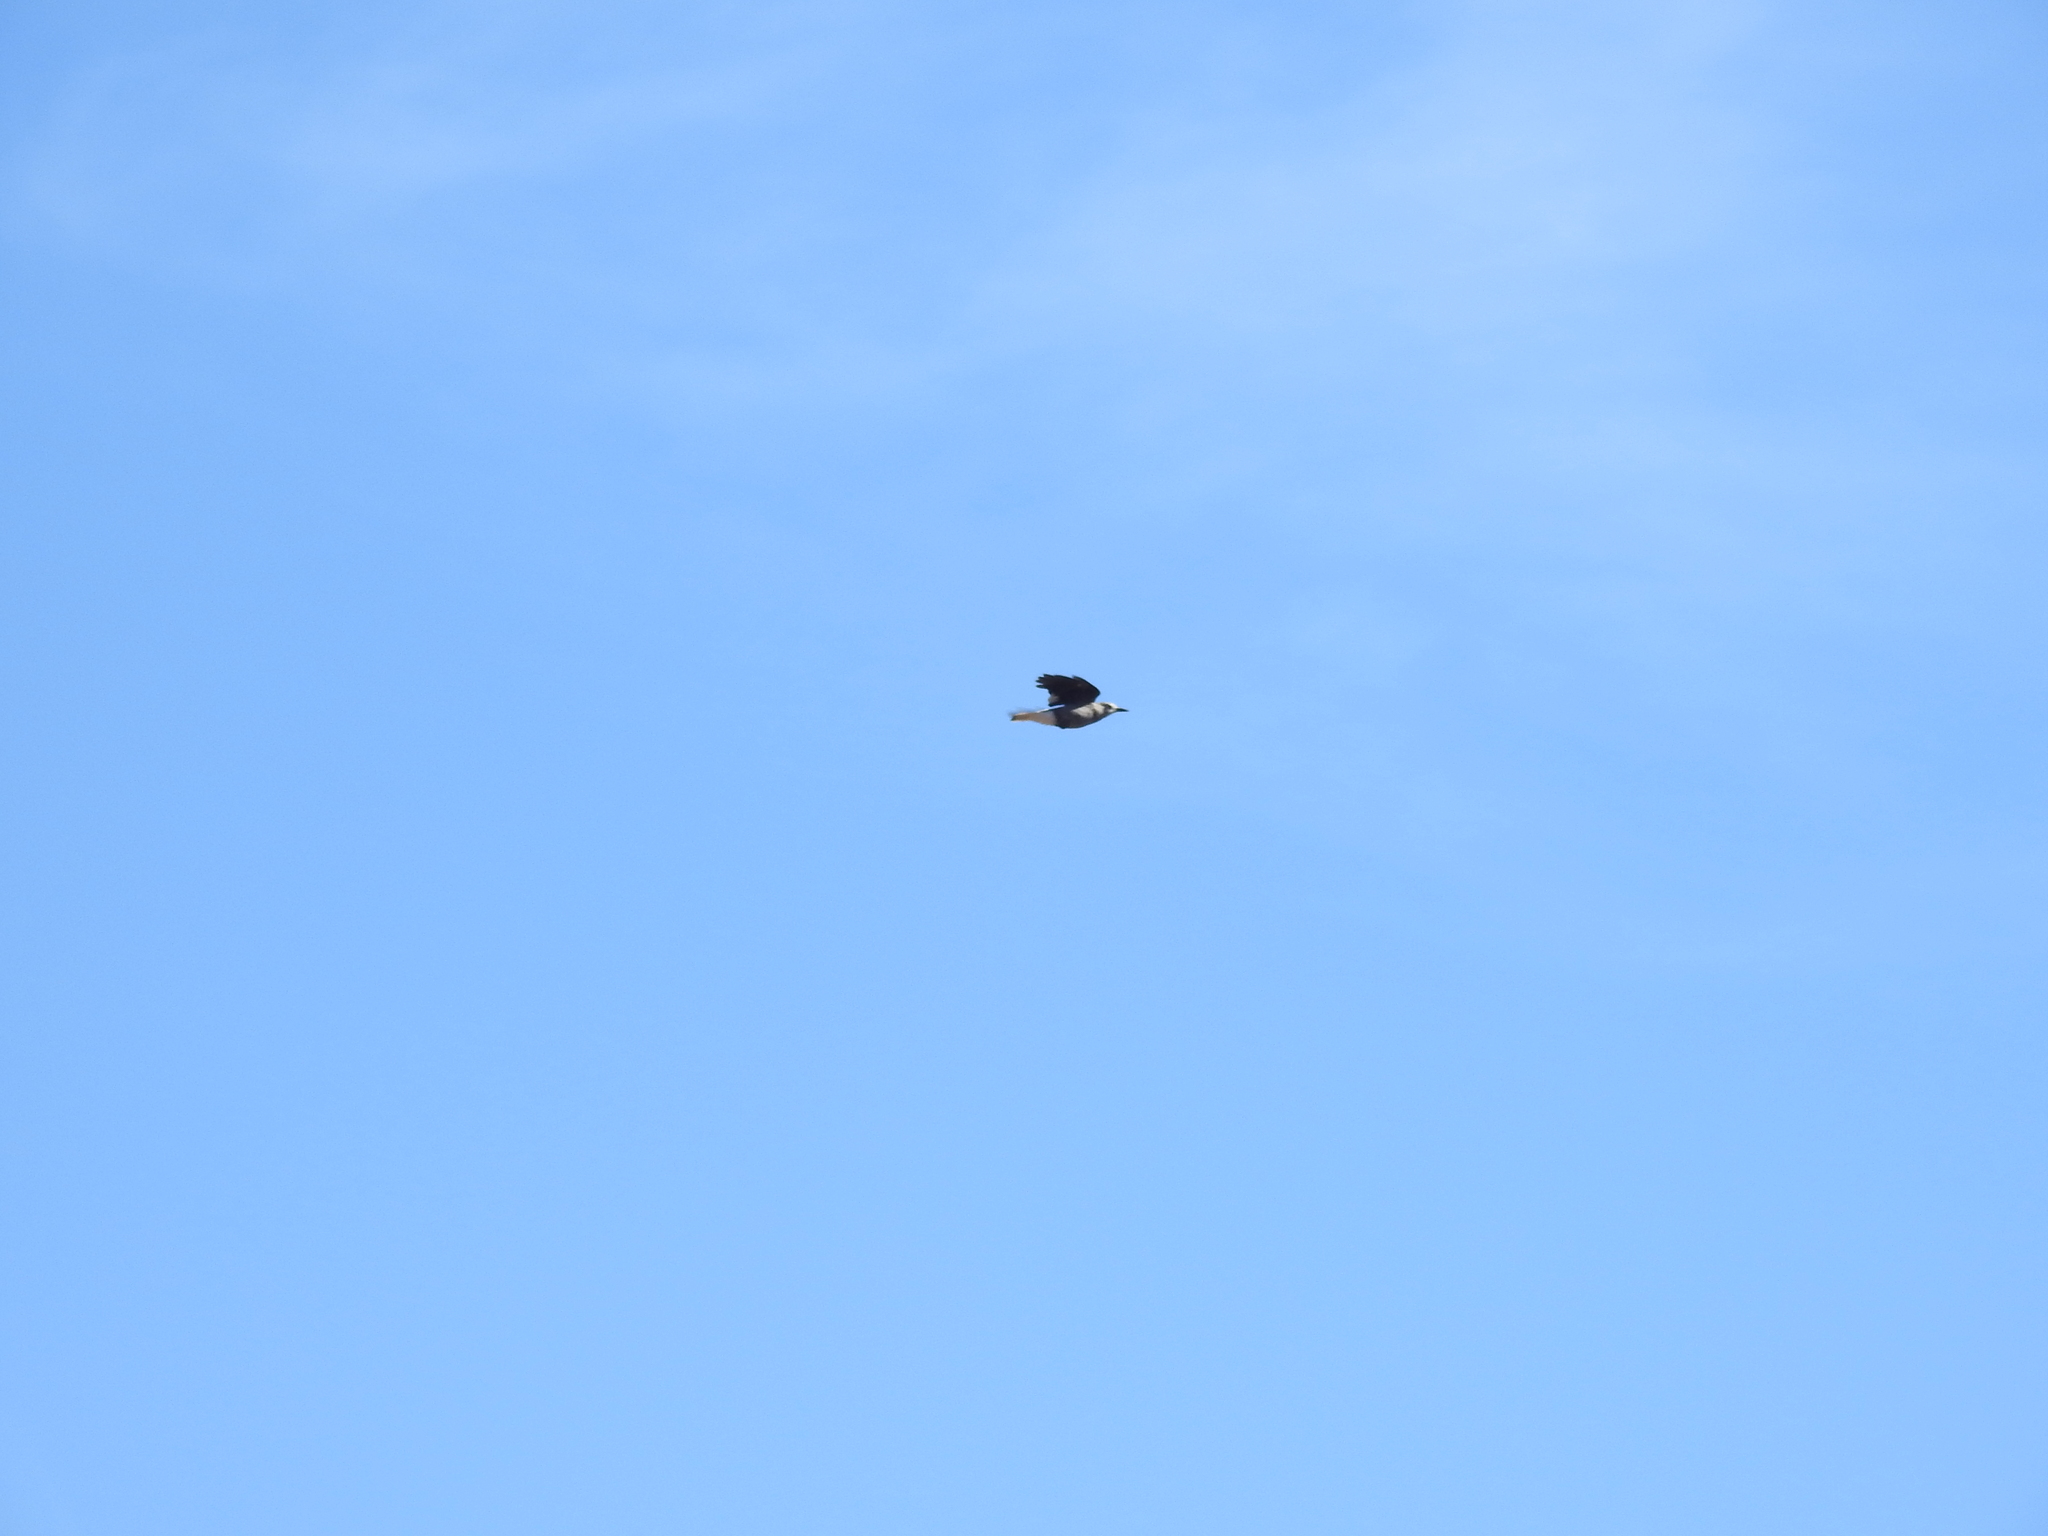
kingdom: Animalia
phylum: Chordata
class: Aves
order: Passeriformes
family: Corvidae
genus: Nucifraga
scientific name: Nucifraga columbiana
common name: Clark's nutcracker
